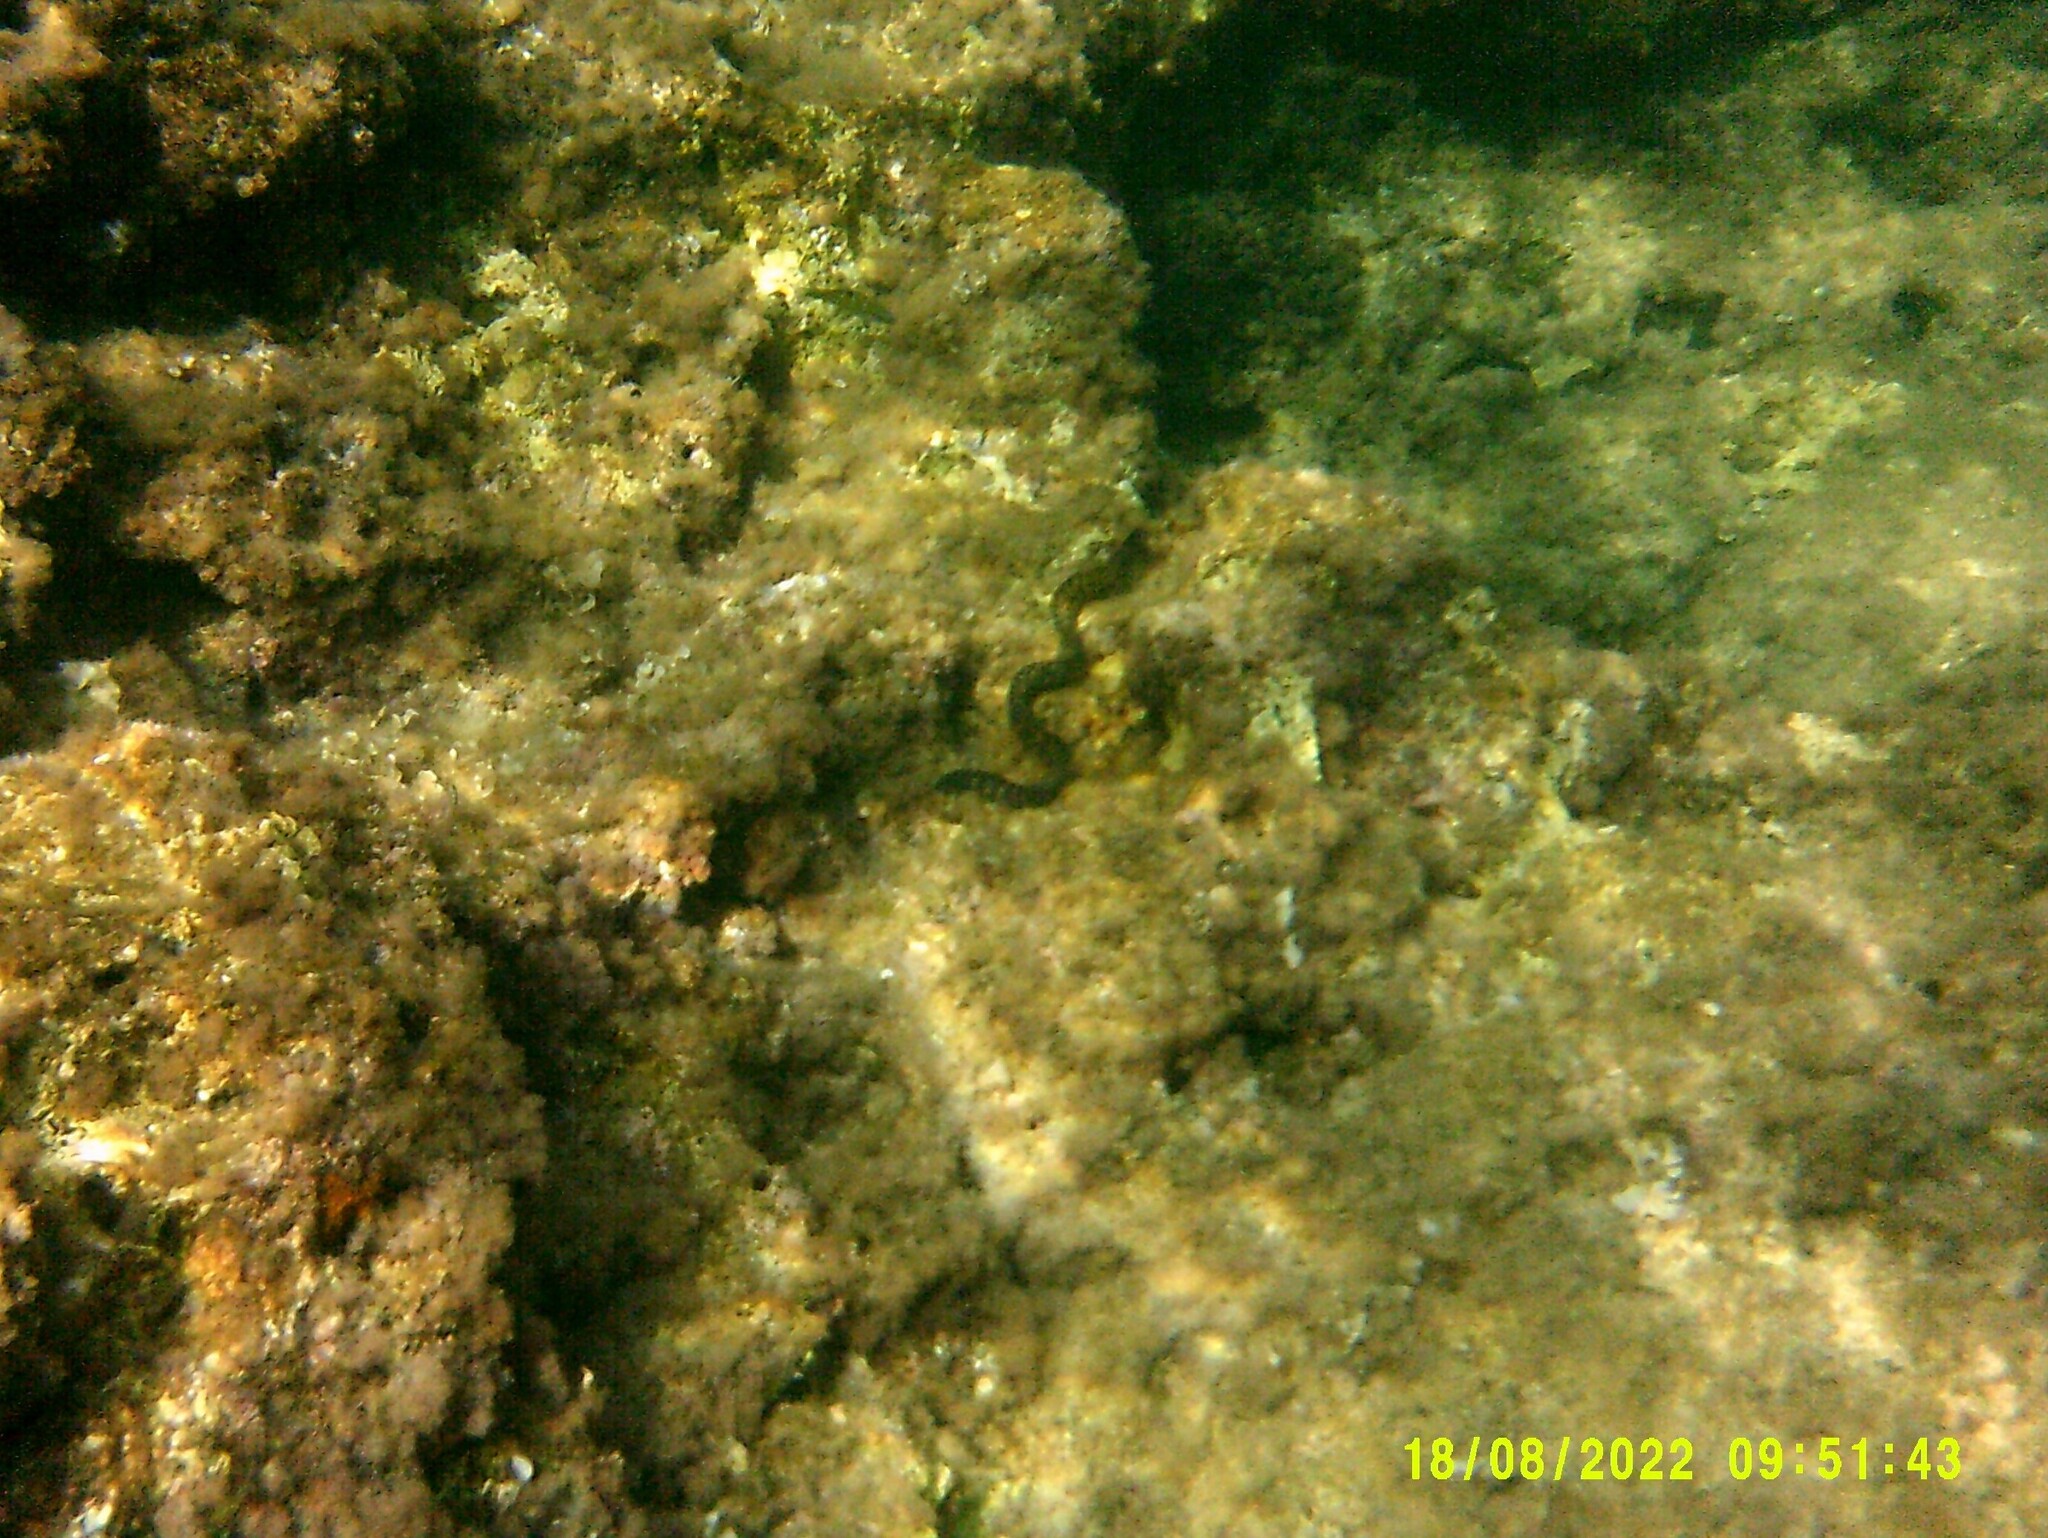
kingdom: Animalia
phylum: Chordata
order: Anguilliformes
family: Muraenidae
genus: Muraena
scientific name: Muraena helena
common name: Mediterranean moray
